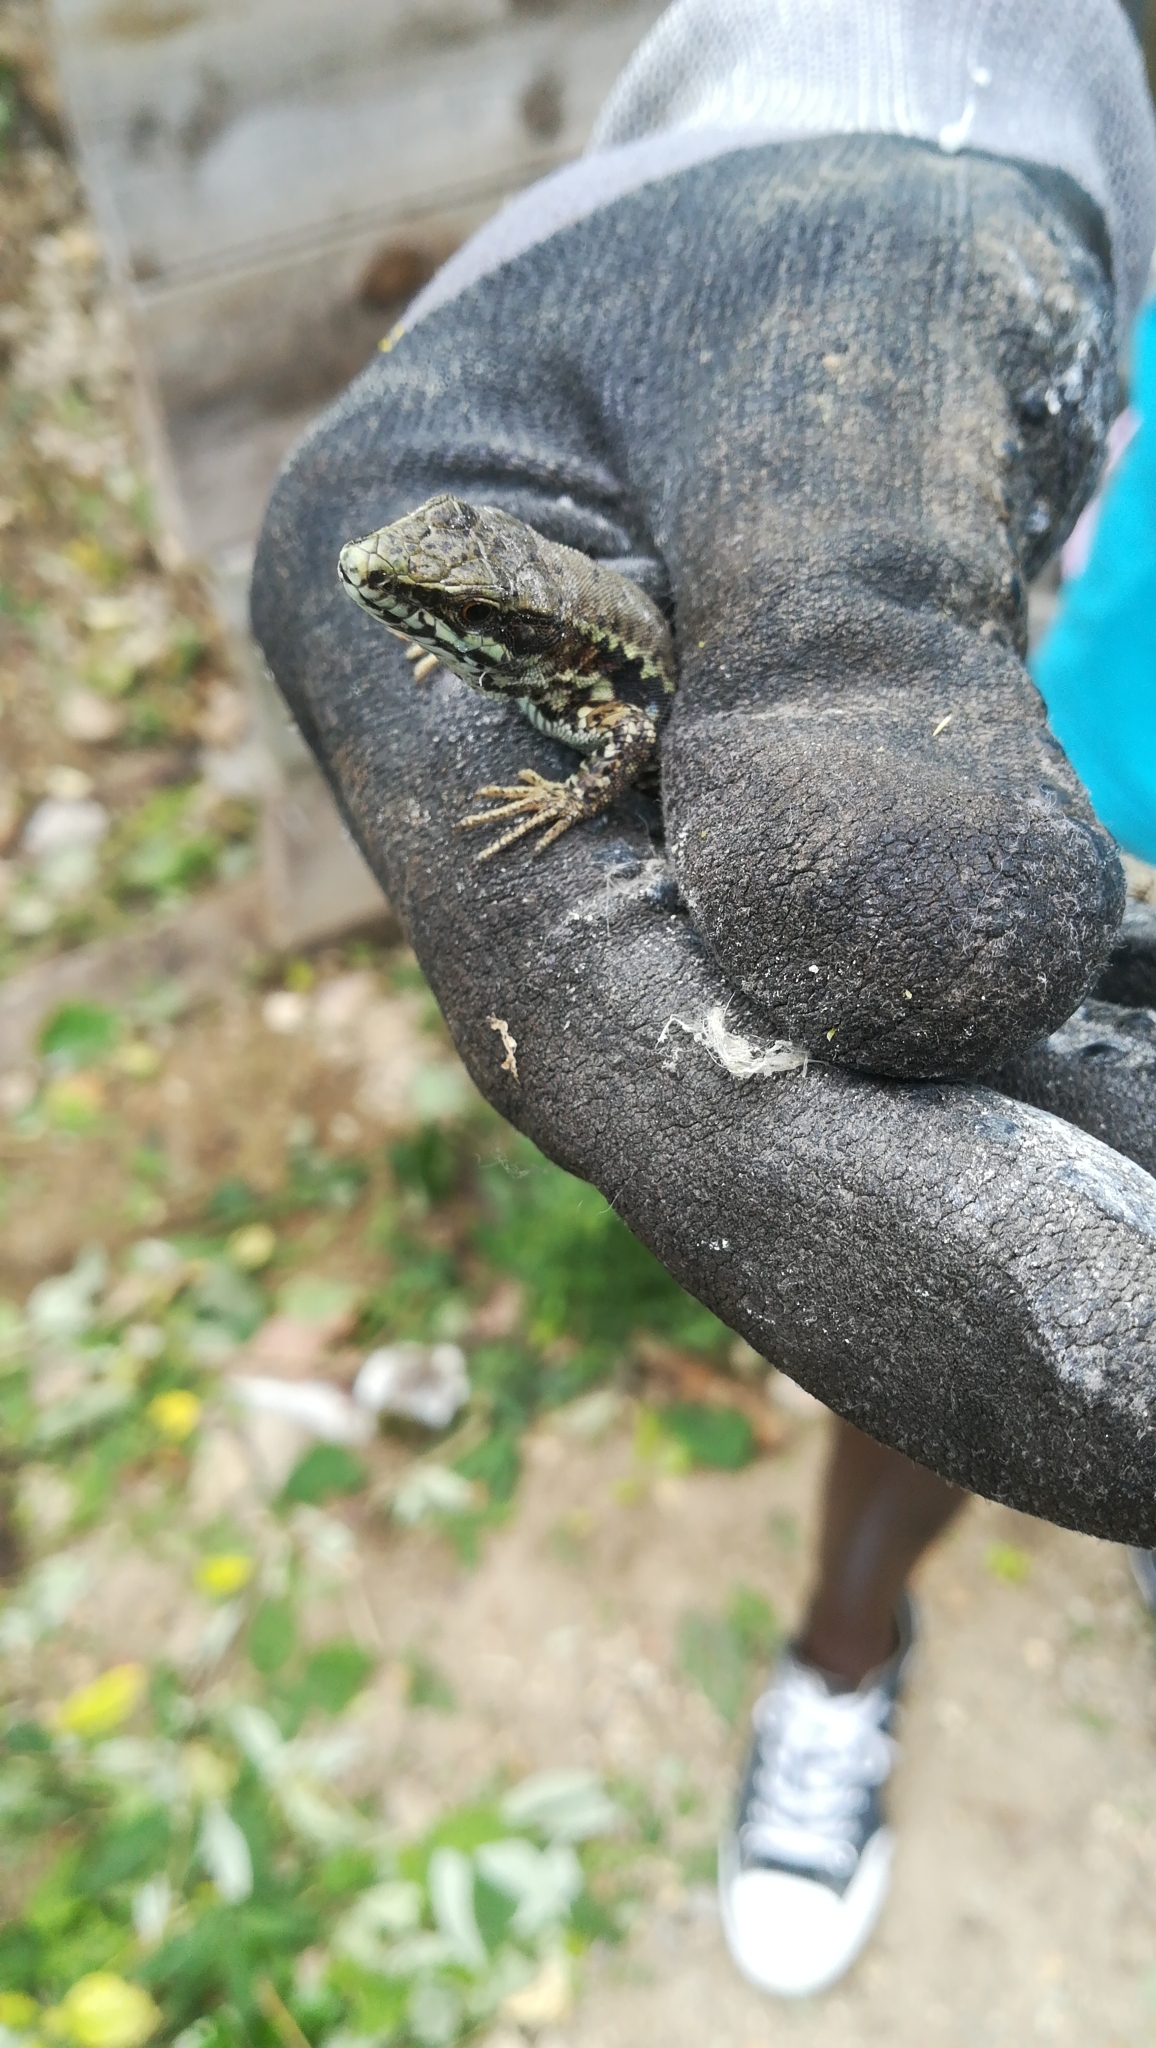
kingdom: Animalia
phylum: Chordata
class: Squamata
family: Lacertidae
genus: Podarcis
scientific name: Podarcis muralis
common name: Common wall lizard
